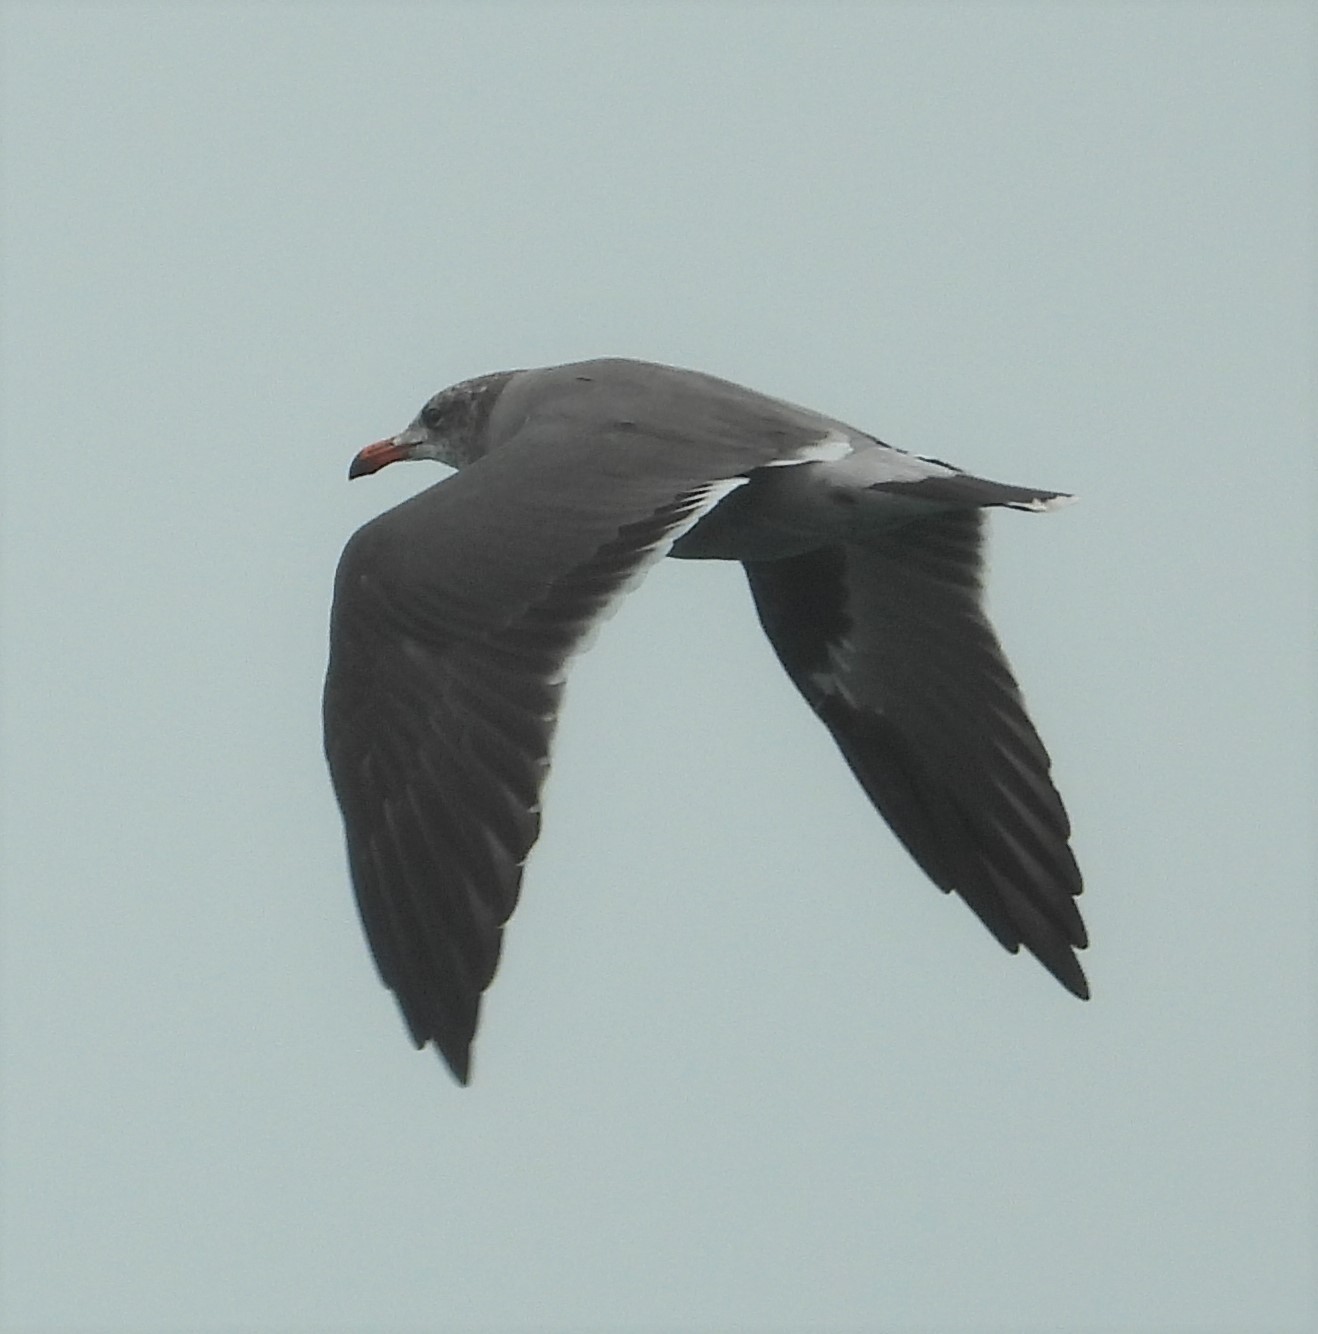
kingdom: Animalia
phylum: Chordata
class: Aves
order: Charadriiformes
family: Laridae
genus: Larus
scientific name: Larus heermanni
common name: Heermann's gull
